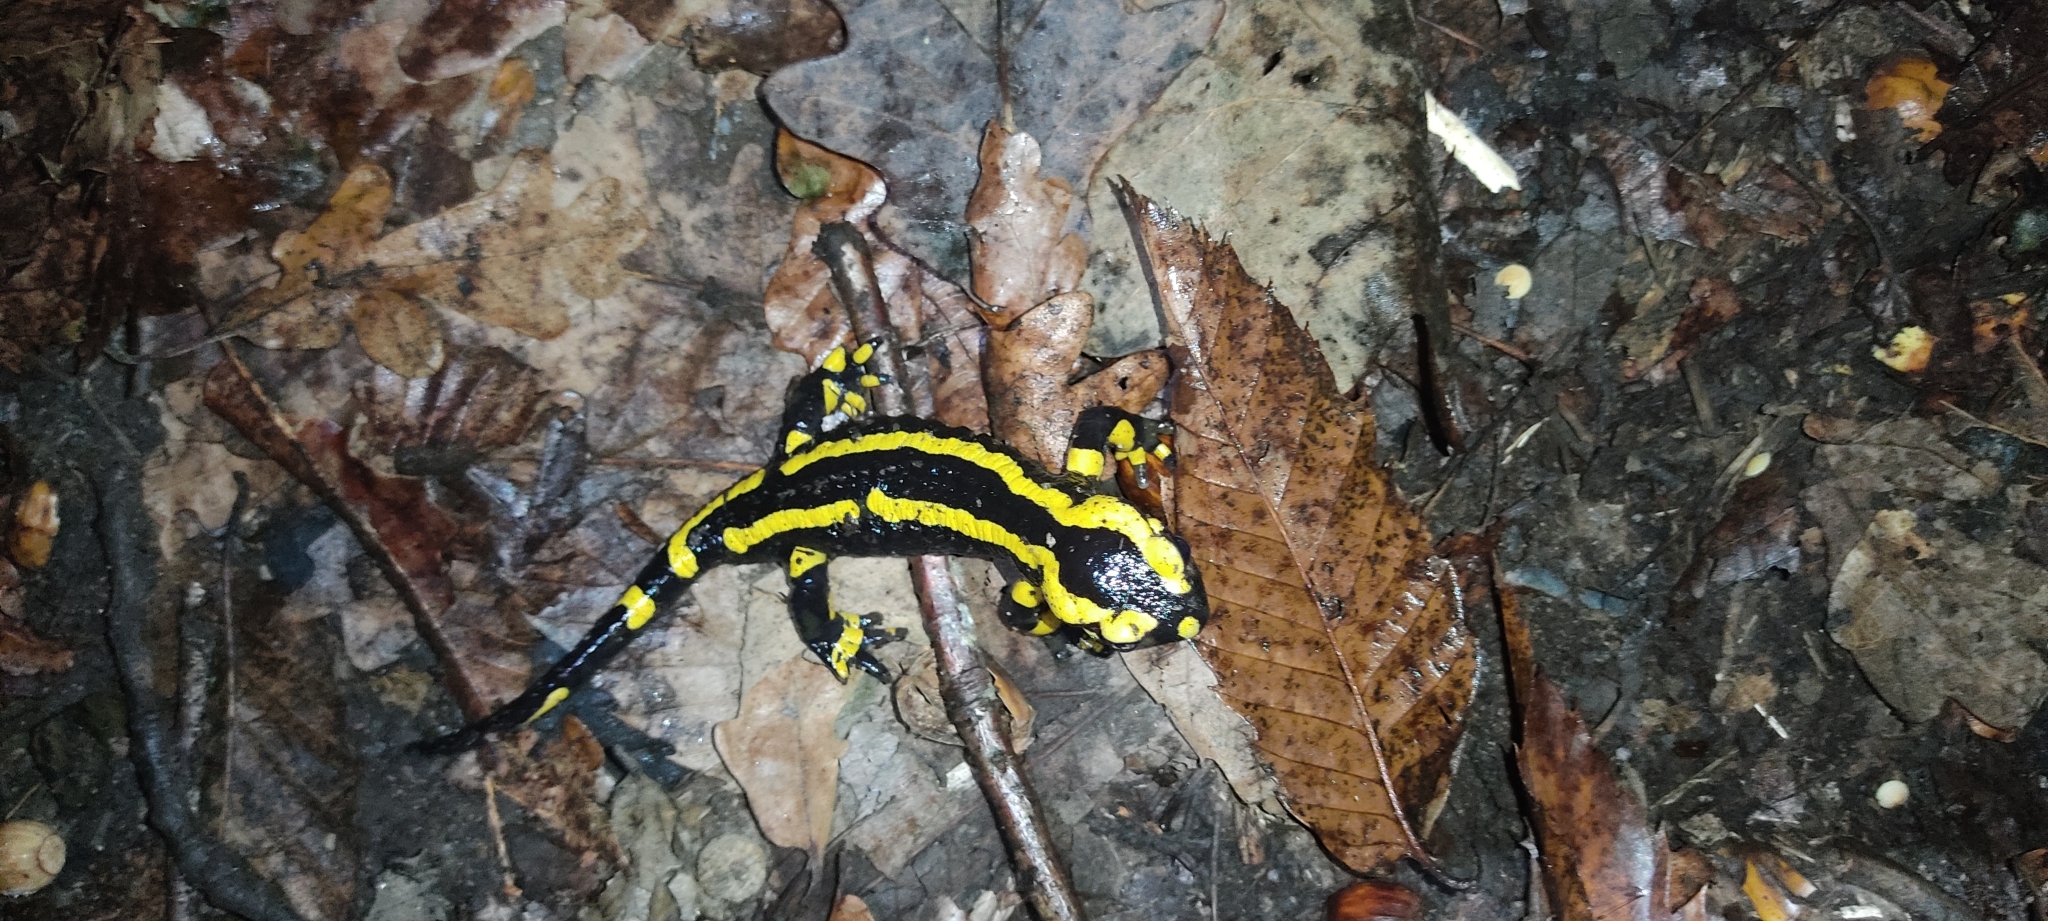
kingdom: Animalia
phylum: Chordata
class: Amphibia
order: Caudata
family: Salamandridae
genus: Salamandra
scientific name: Salamandra salamandra
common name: Fire salamander
